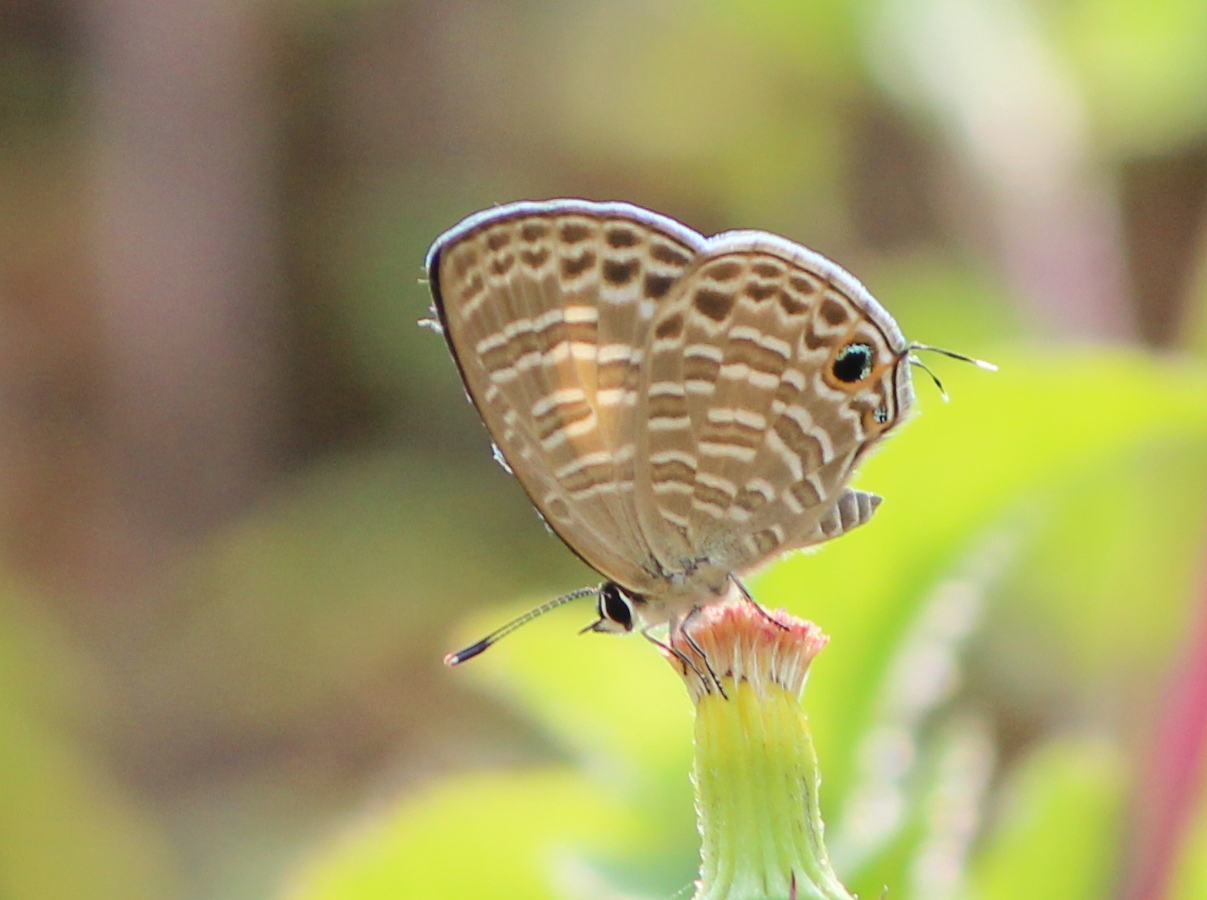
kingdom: Animalia
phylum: Arthropoda
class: Insecta
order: Lepidoptera
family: Lycaenidae
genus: Nacaduba
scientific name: Nacaduba kurava
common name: Transparent 6-line blue
